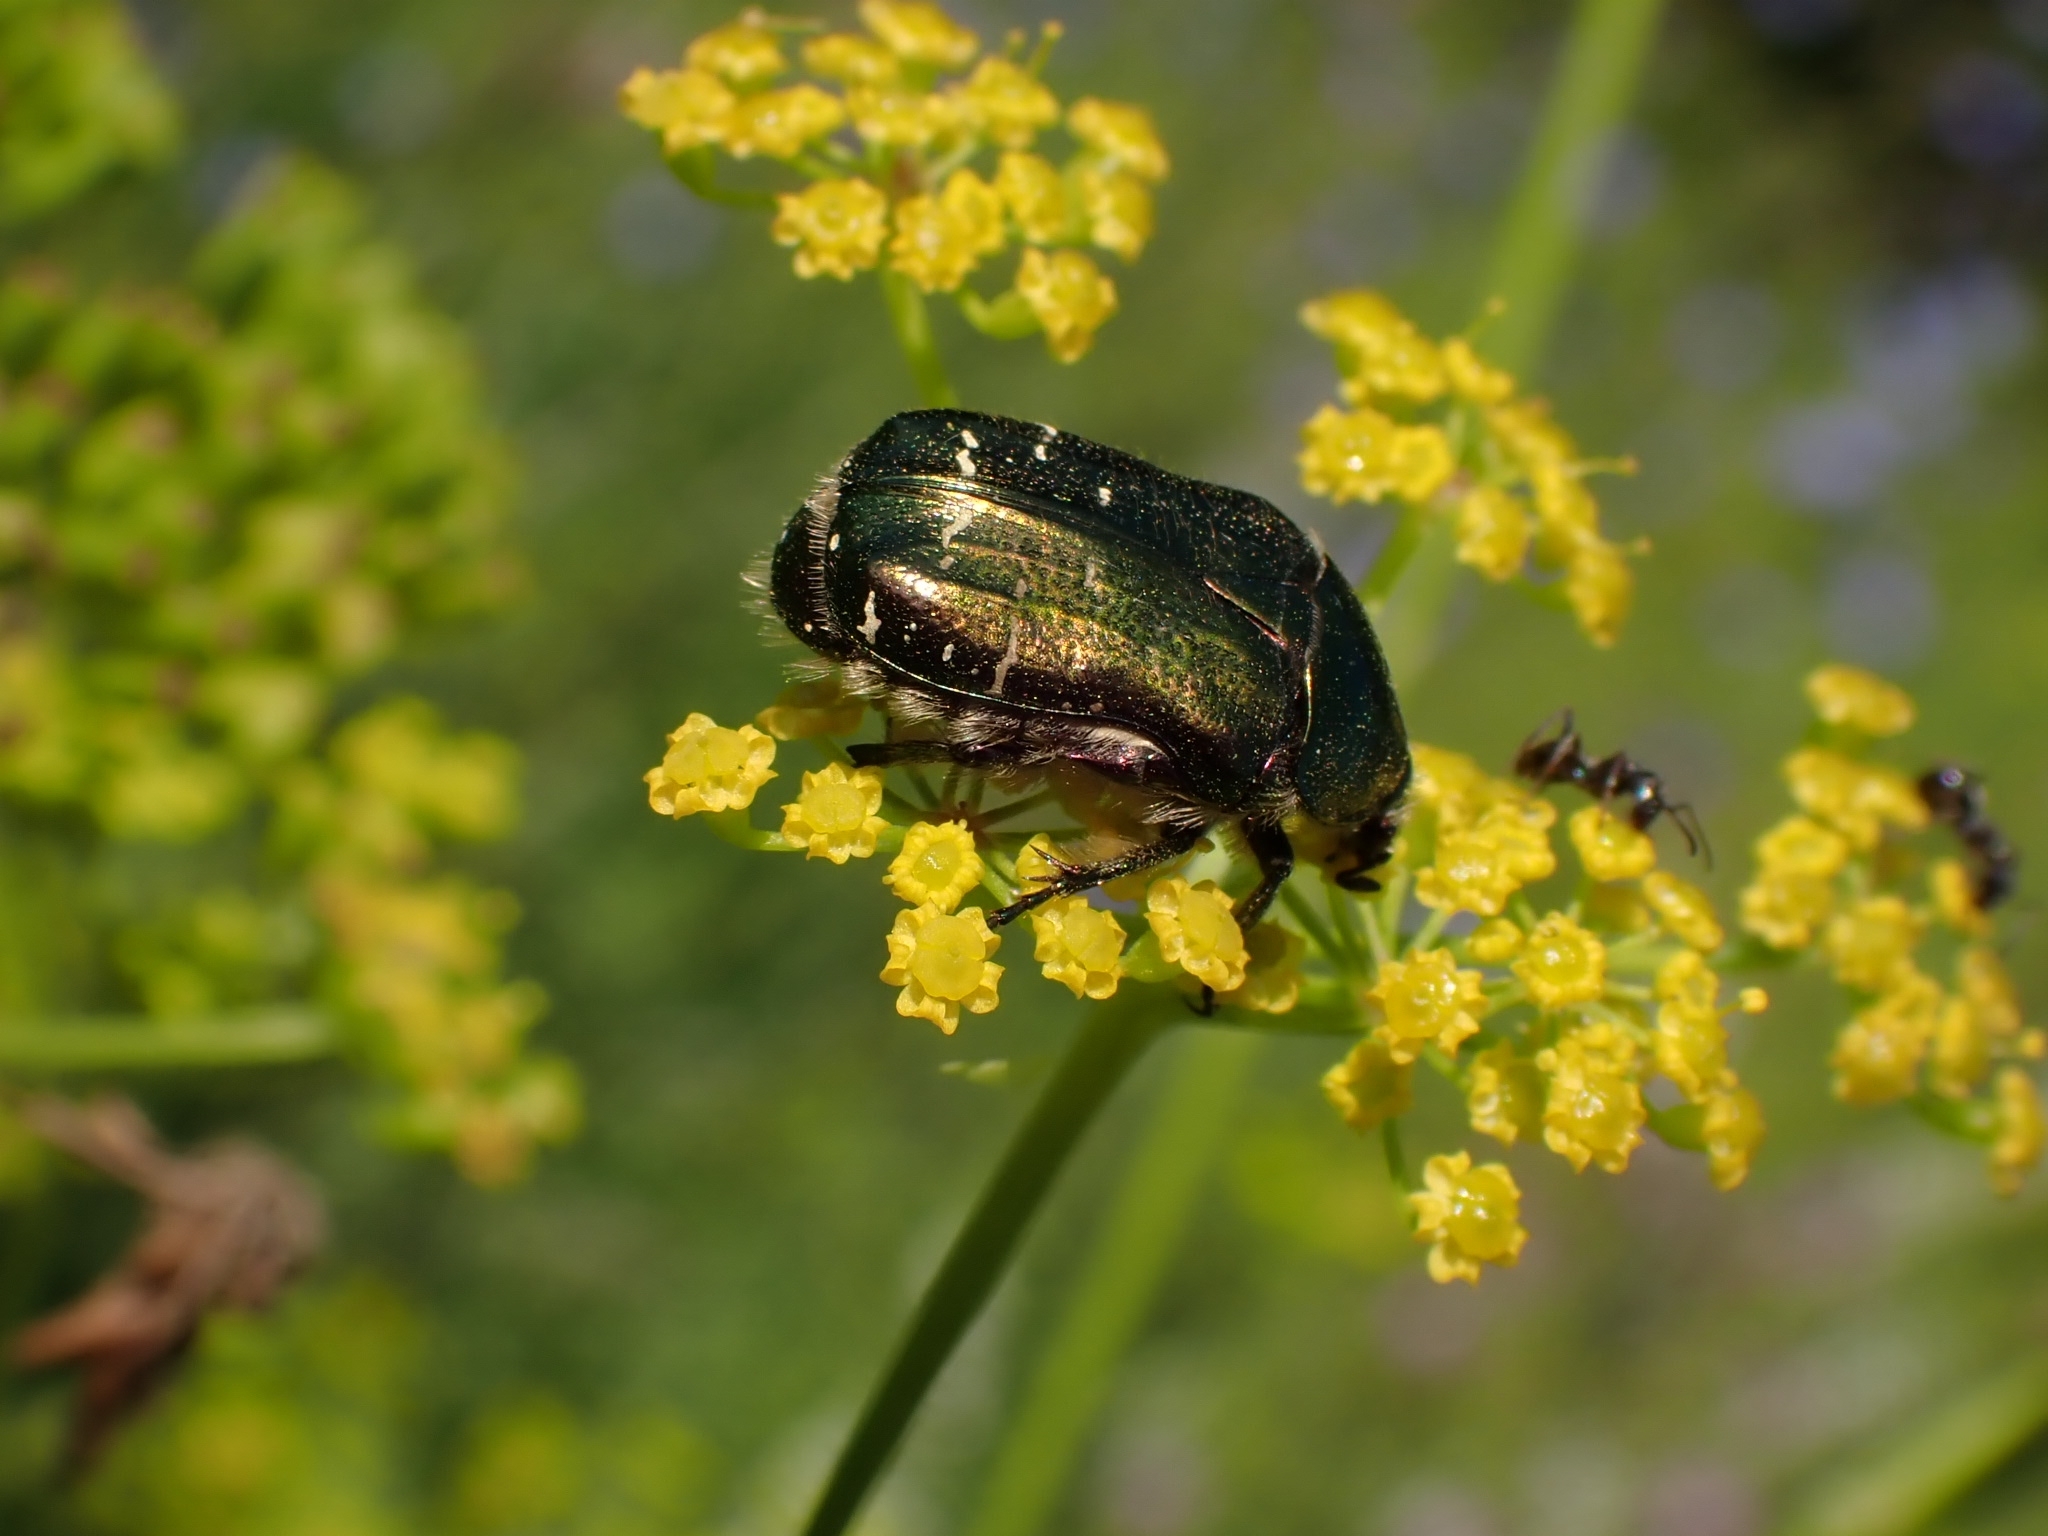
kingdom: Animalia
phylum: Arthropoda
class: Insecta
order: Coleoptera
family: Scarabaeidae
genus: Cetonia
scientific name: Cetonia aurata
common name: Rose chafer
